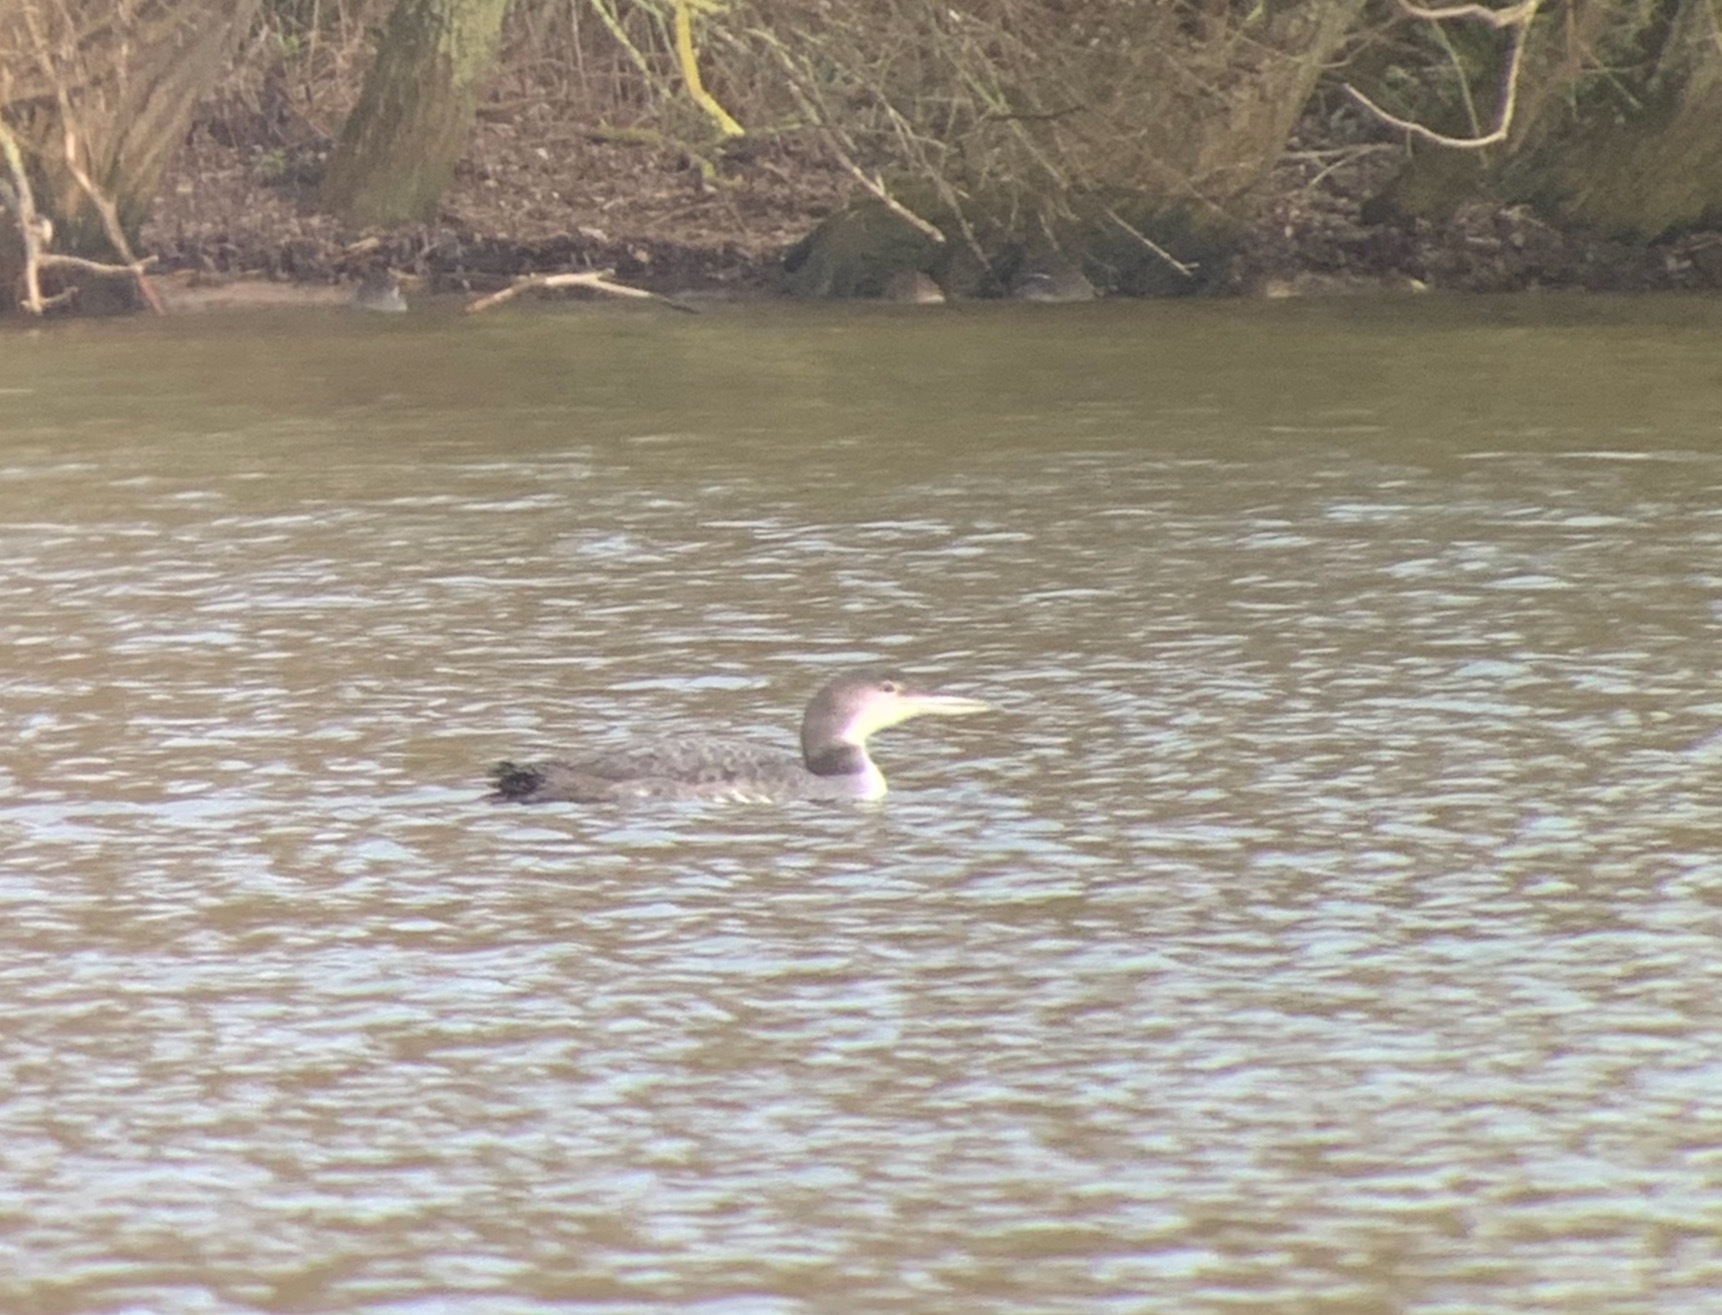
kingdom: Animalia
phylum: Chordata
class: Aves
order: Gaviiformes
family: Gaviidae
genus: Gavia
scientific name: Gavia immer
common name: Common loon
